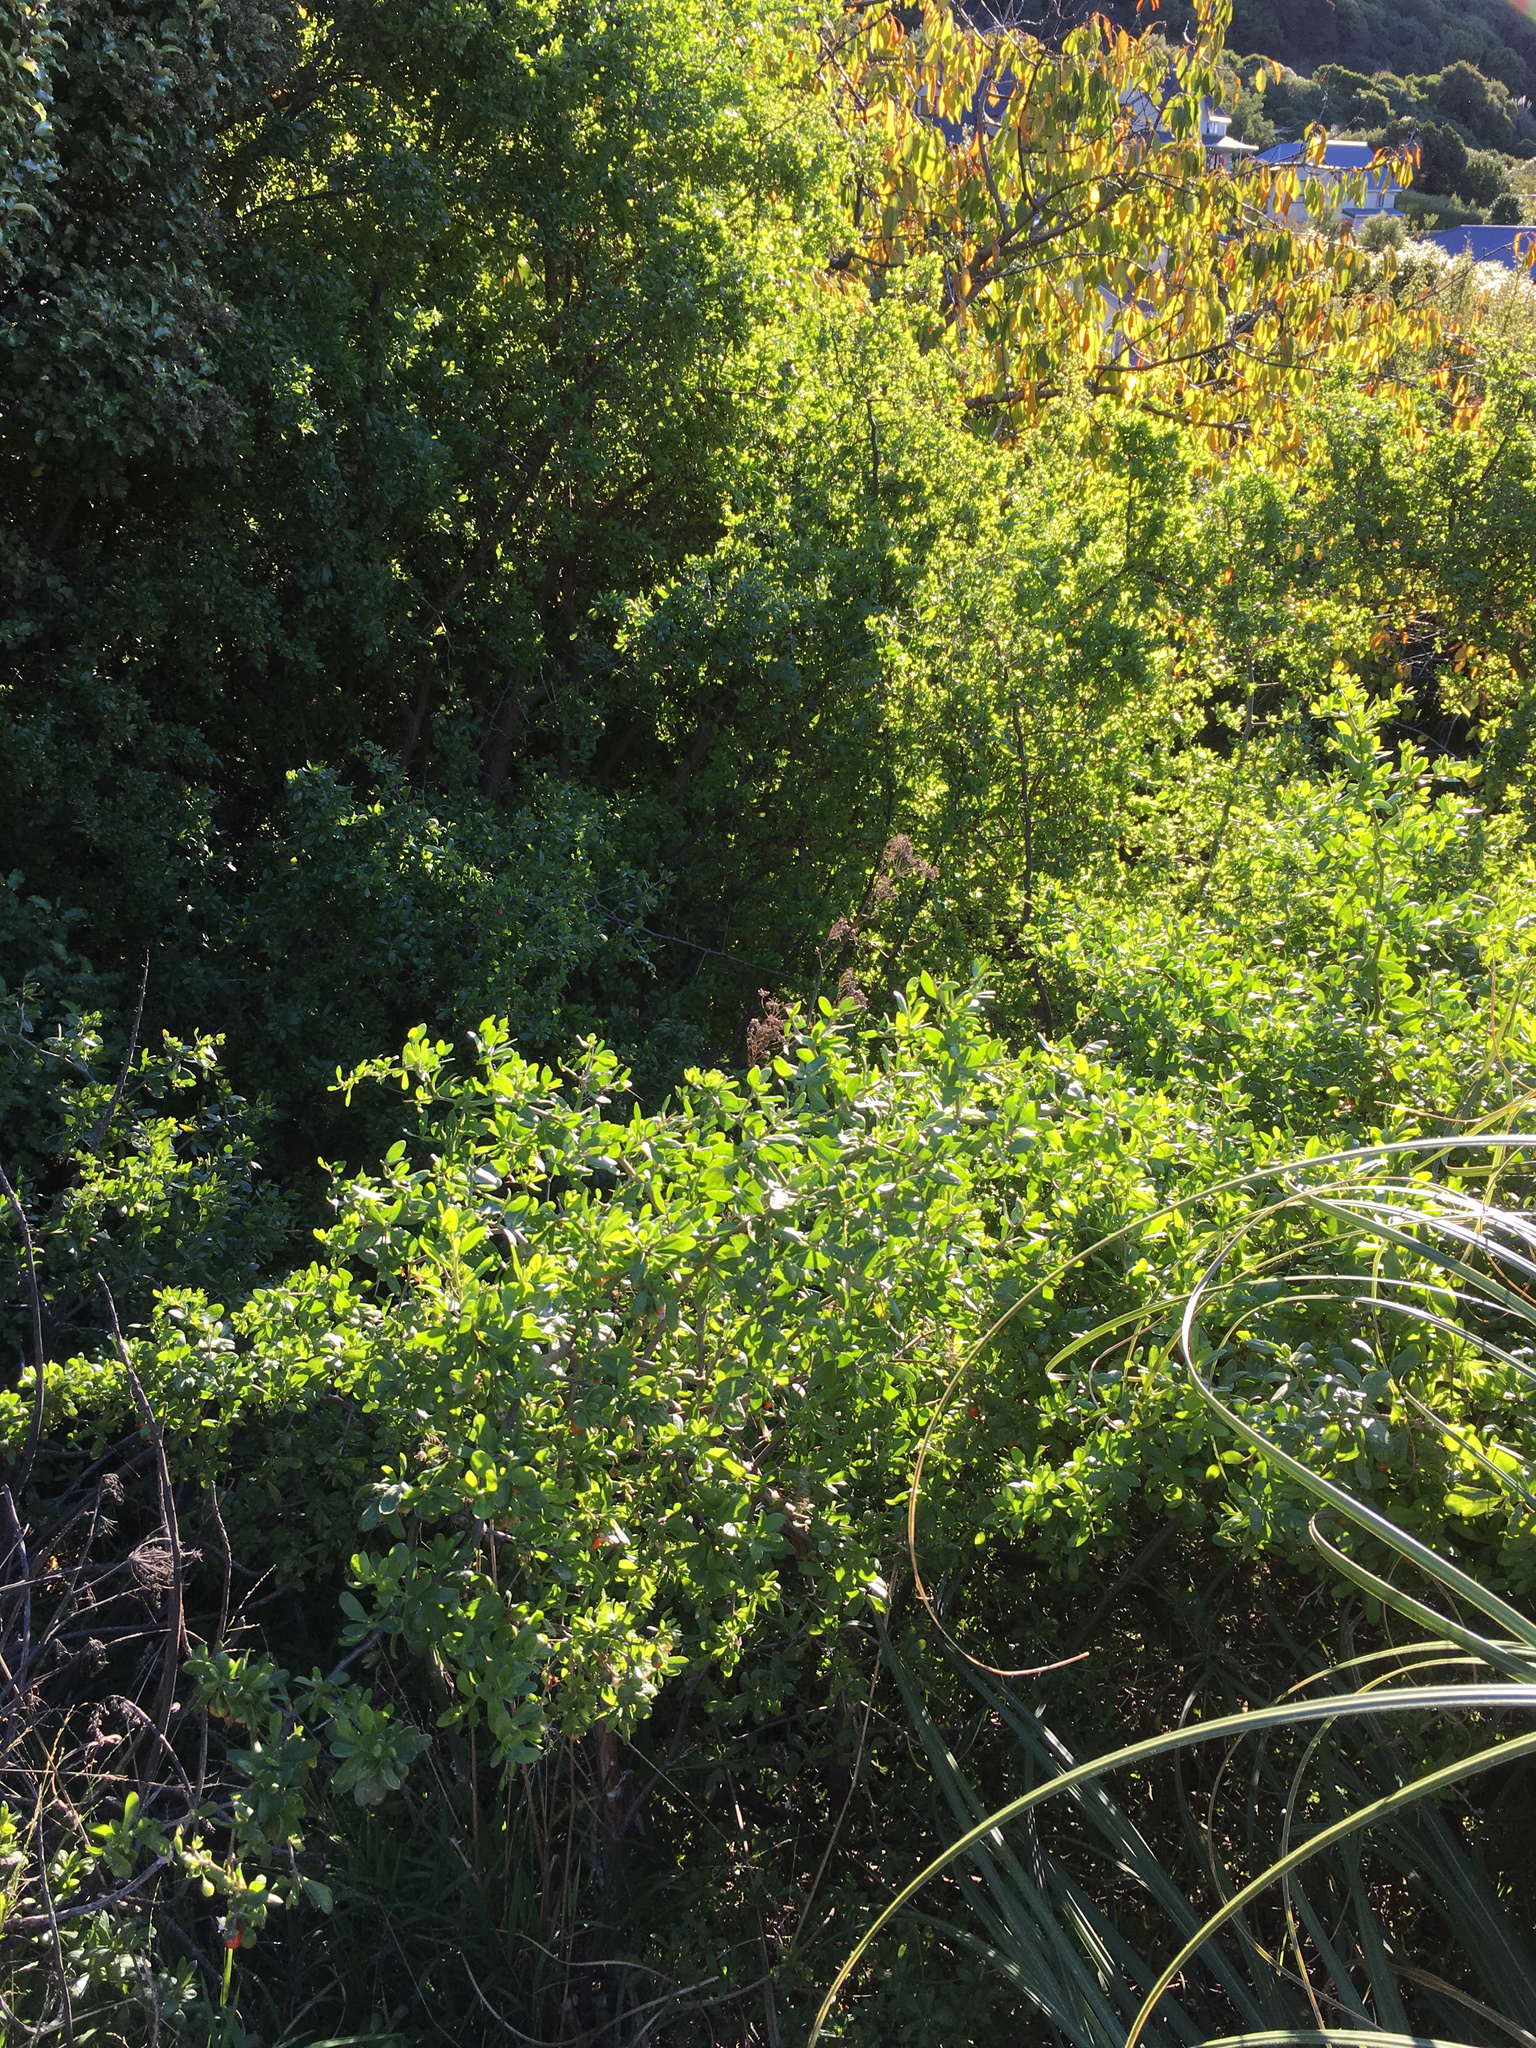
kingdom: Plantae
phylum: Tracheophyta
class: Magnoliopsida
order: Solanales
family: Solanaceae
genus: Lycium
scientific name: Lycium ferocissimum
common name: African boxthorn
